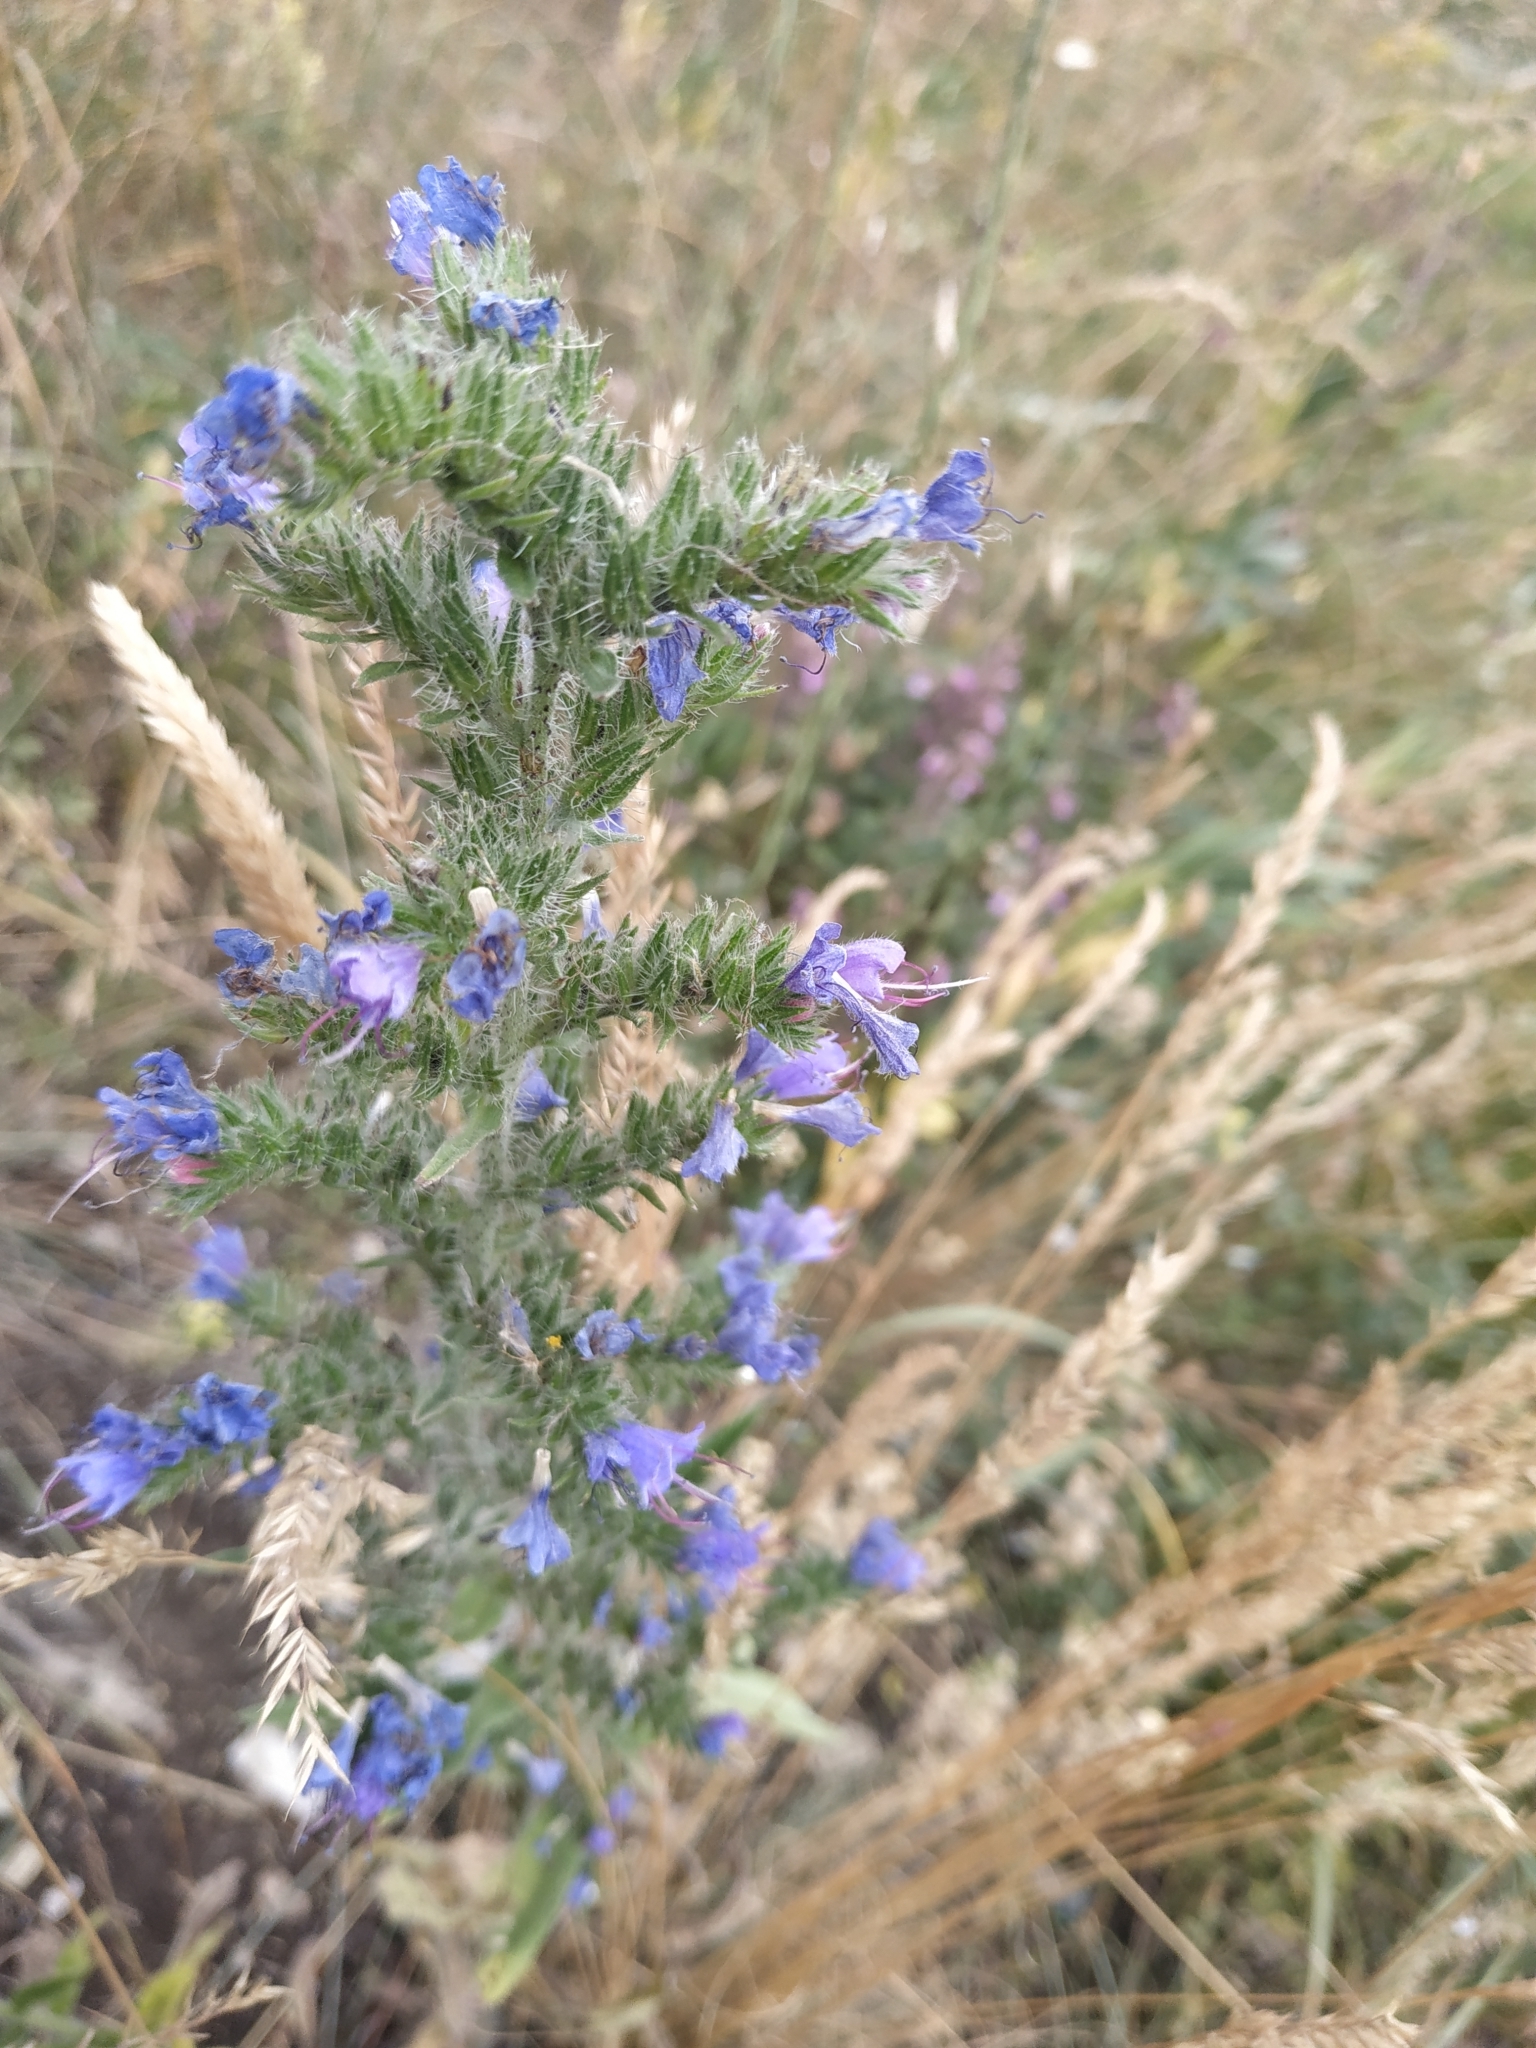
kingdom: Plantae
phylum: Tracheophyta
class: Magnoliopsida
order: Boraginales
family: Boraginaceae
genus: Echium
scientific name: Echium vulgare
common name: Common viper's bugloss
